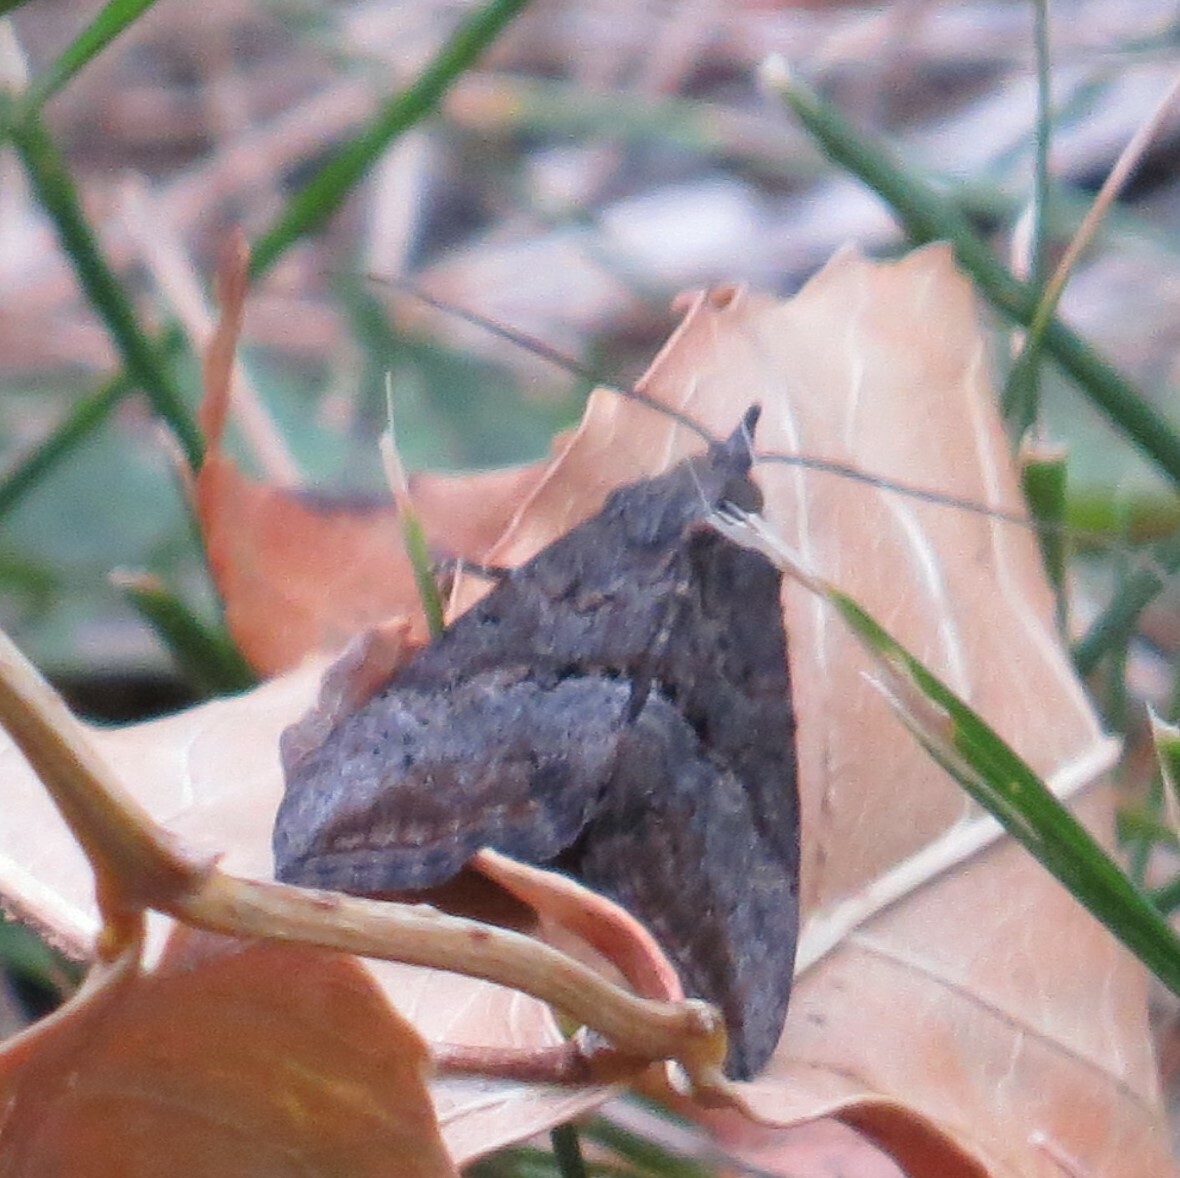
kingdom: Animalia
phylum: Arthropoda
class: Insecta
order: Lepidoptera
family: Erebidae
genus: Hypena
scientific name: Hypena scabra
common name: Green cloverworm
